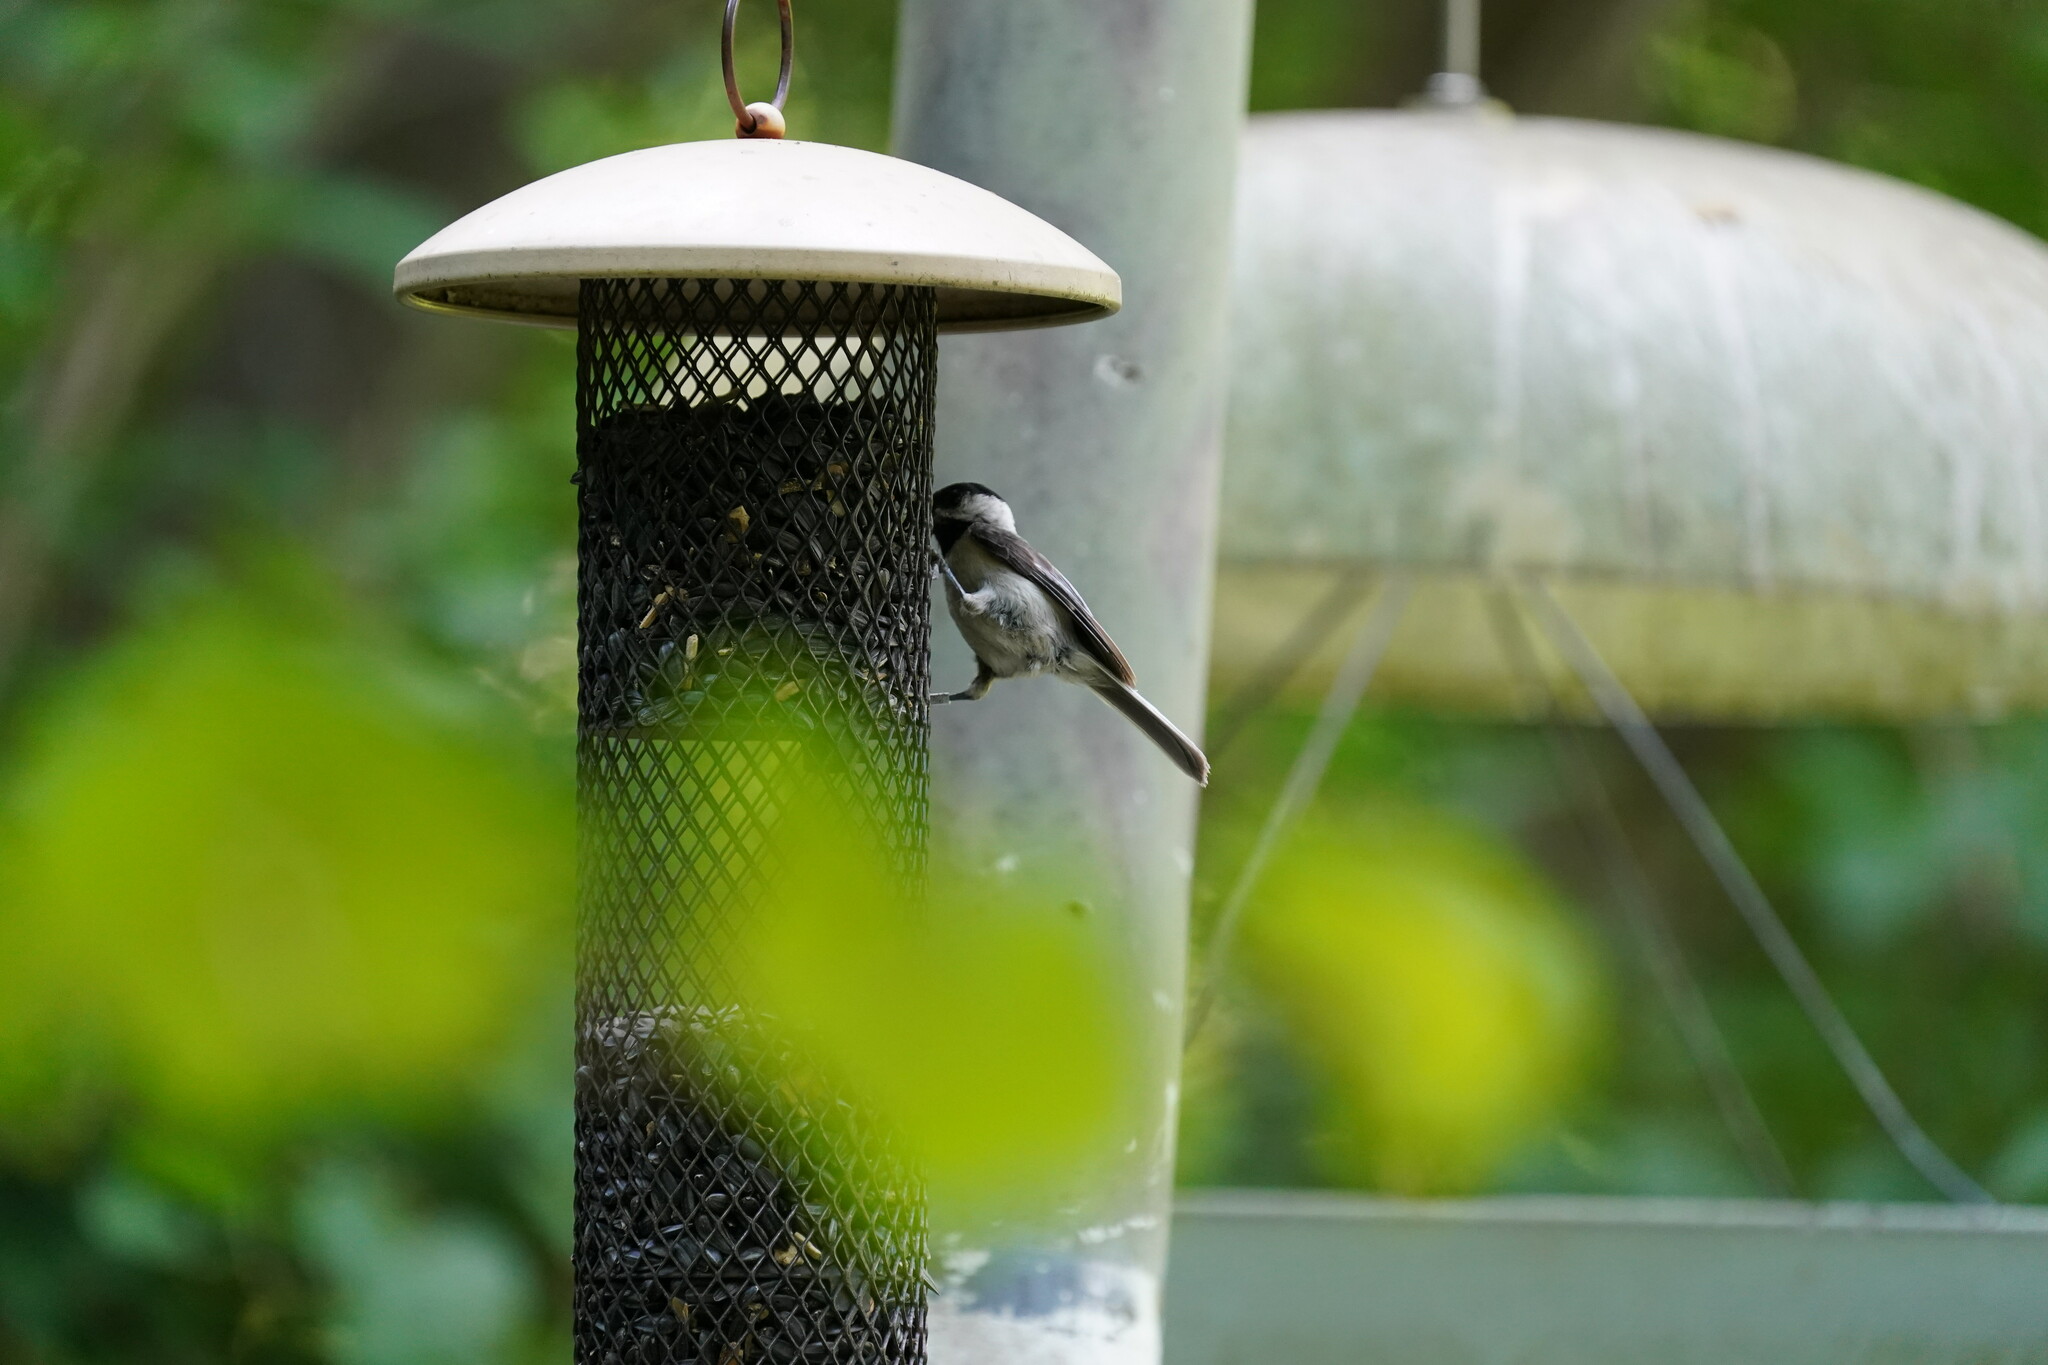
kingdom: Animalia
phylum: Chordata
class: Aves
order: Passeriformes
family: Paridae
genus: Poecile
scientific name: Poecile carolinensis
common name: Carolina chickadee
